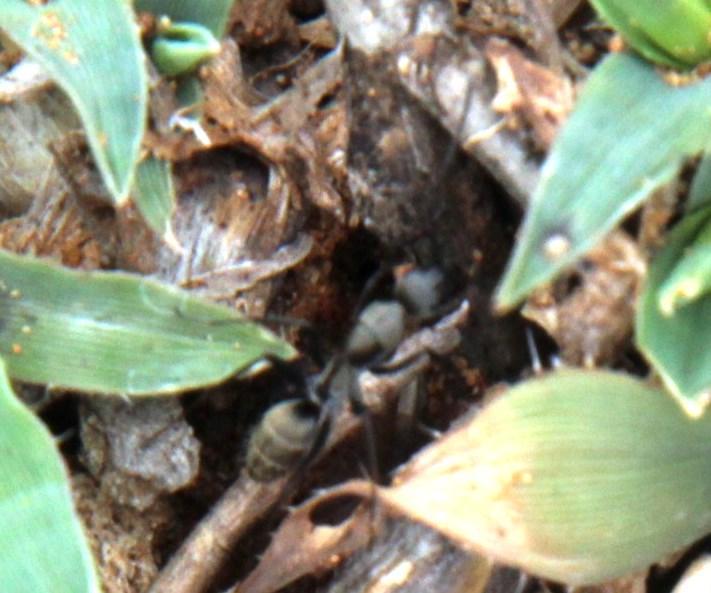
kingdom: Animalia
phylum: Arthropoda
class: Insecta
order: Hymenoptera
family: Formicidae
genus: Camponotus
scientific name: Camponotus cinctellus
